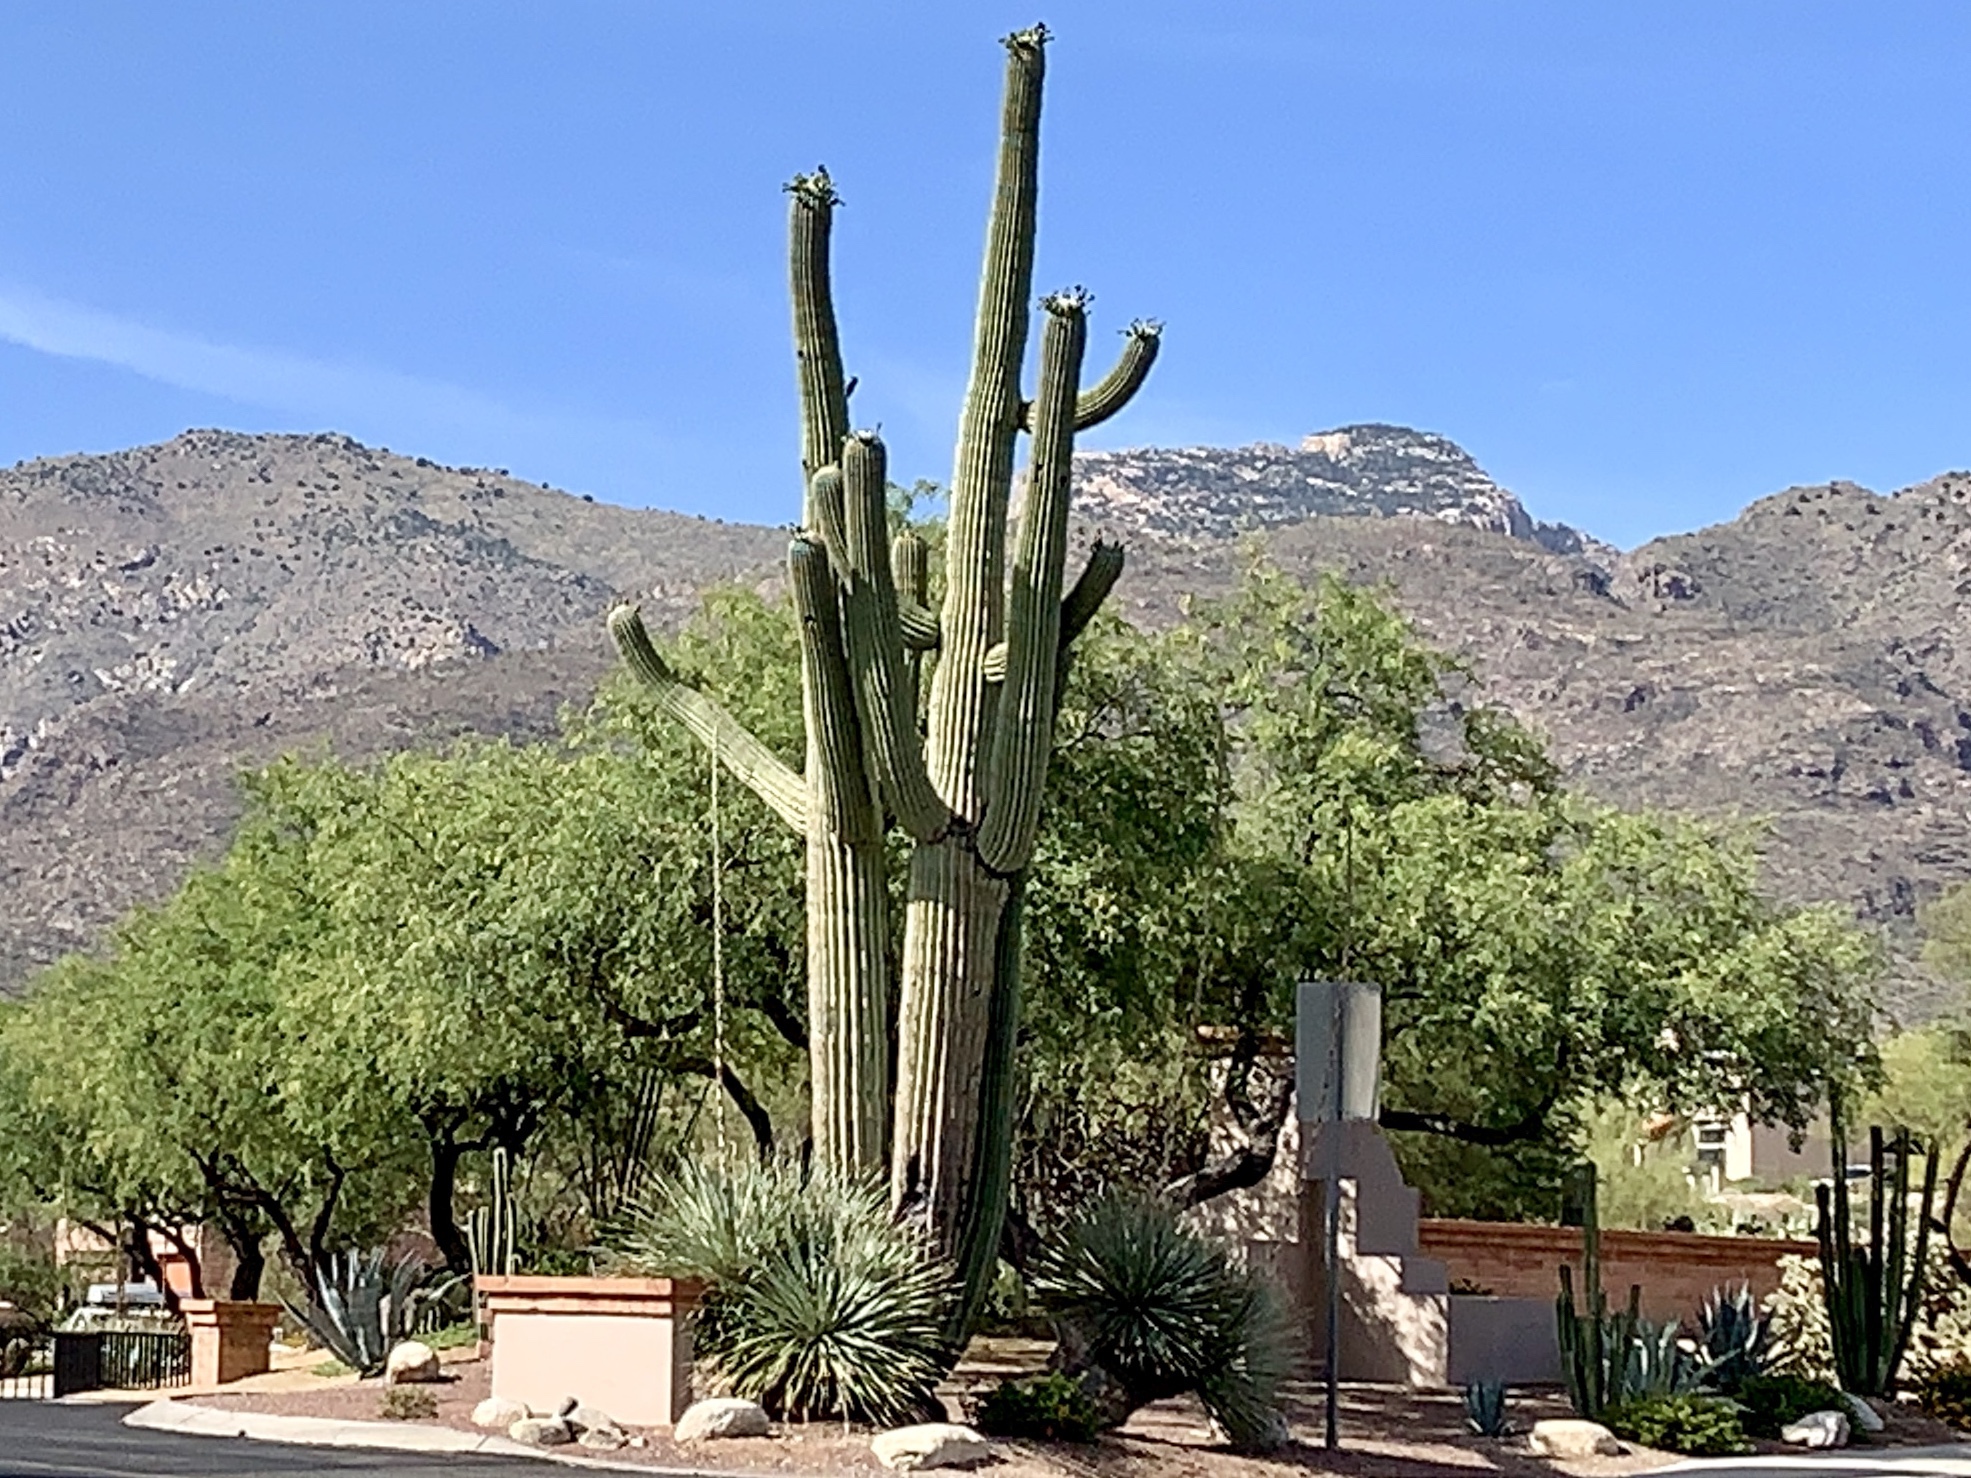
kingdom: Plantae
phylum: Tracheophyta
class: Magnoliopsida
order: Caryophyllales
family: Cactaceae
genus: Carnegiea
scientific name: Carnegiea gigantea
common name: Saguaro
